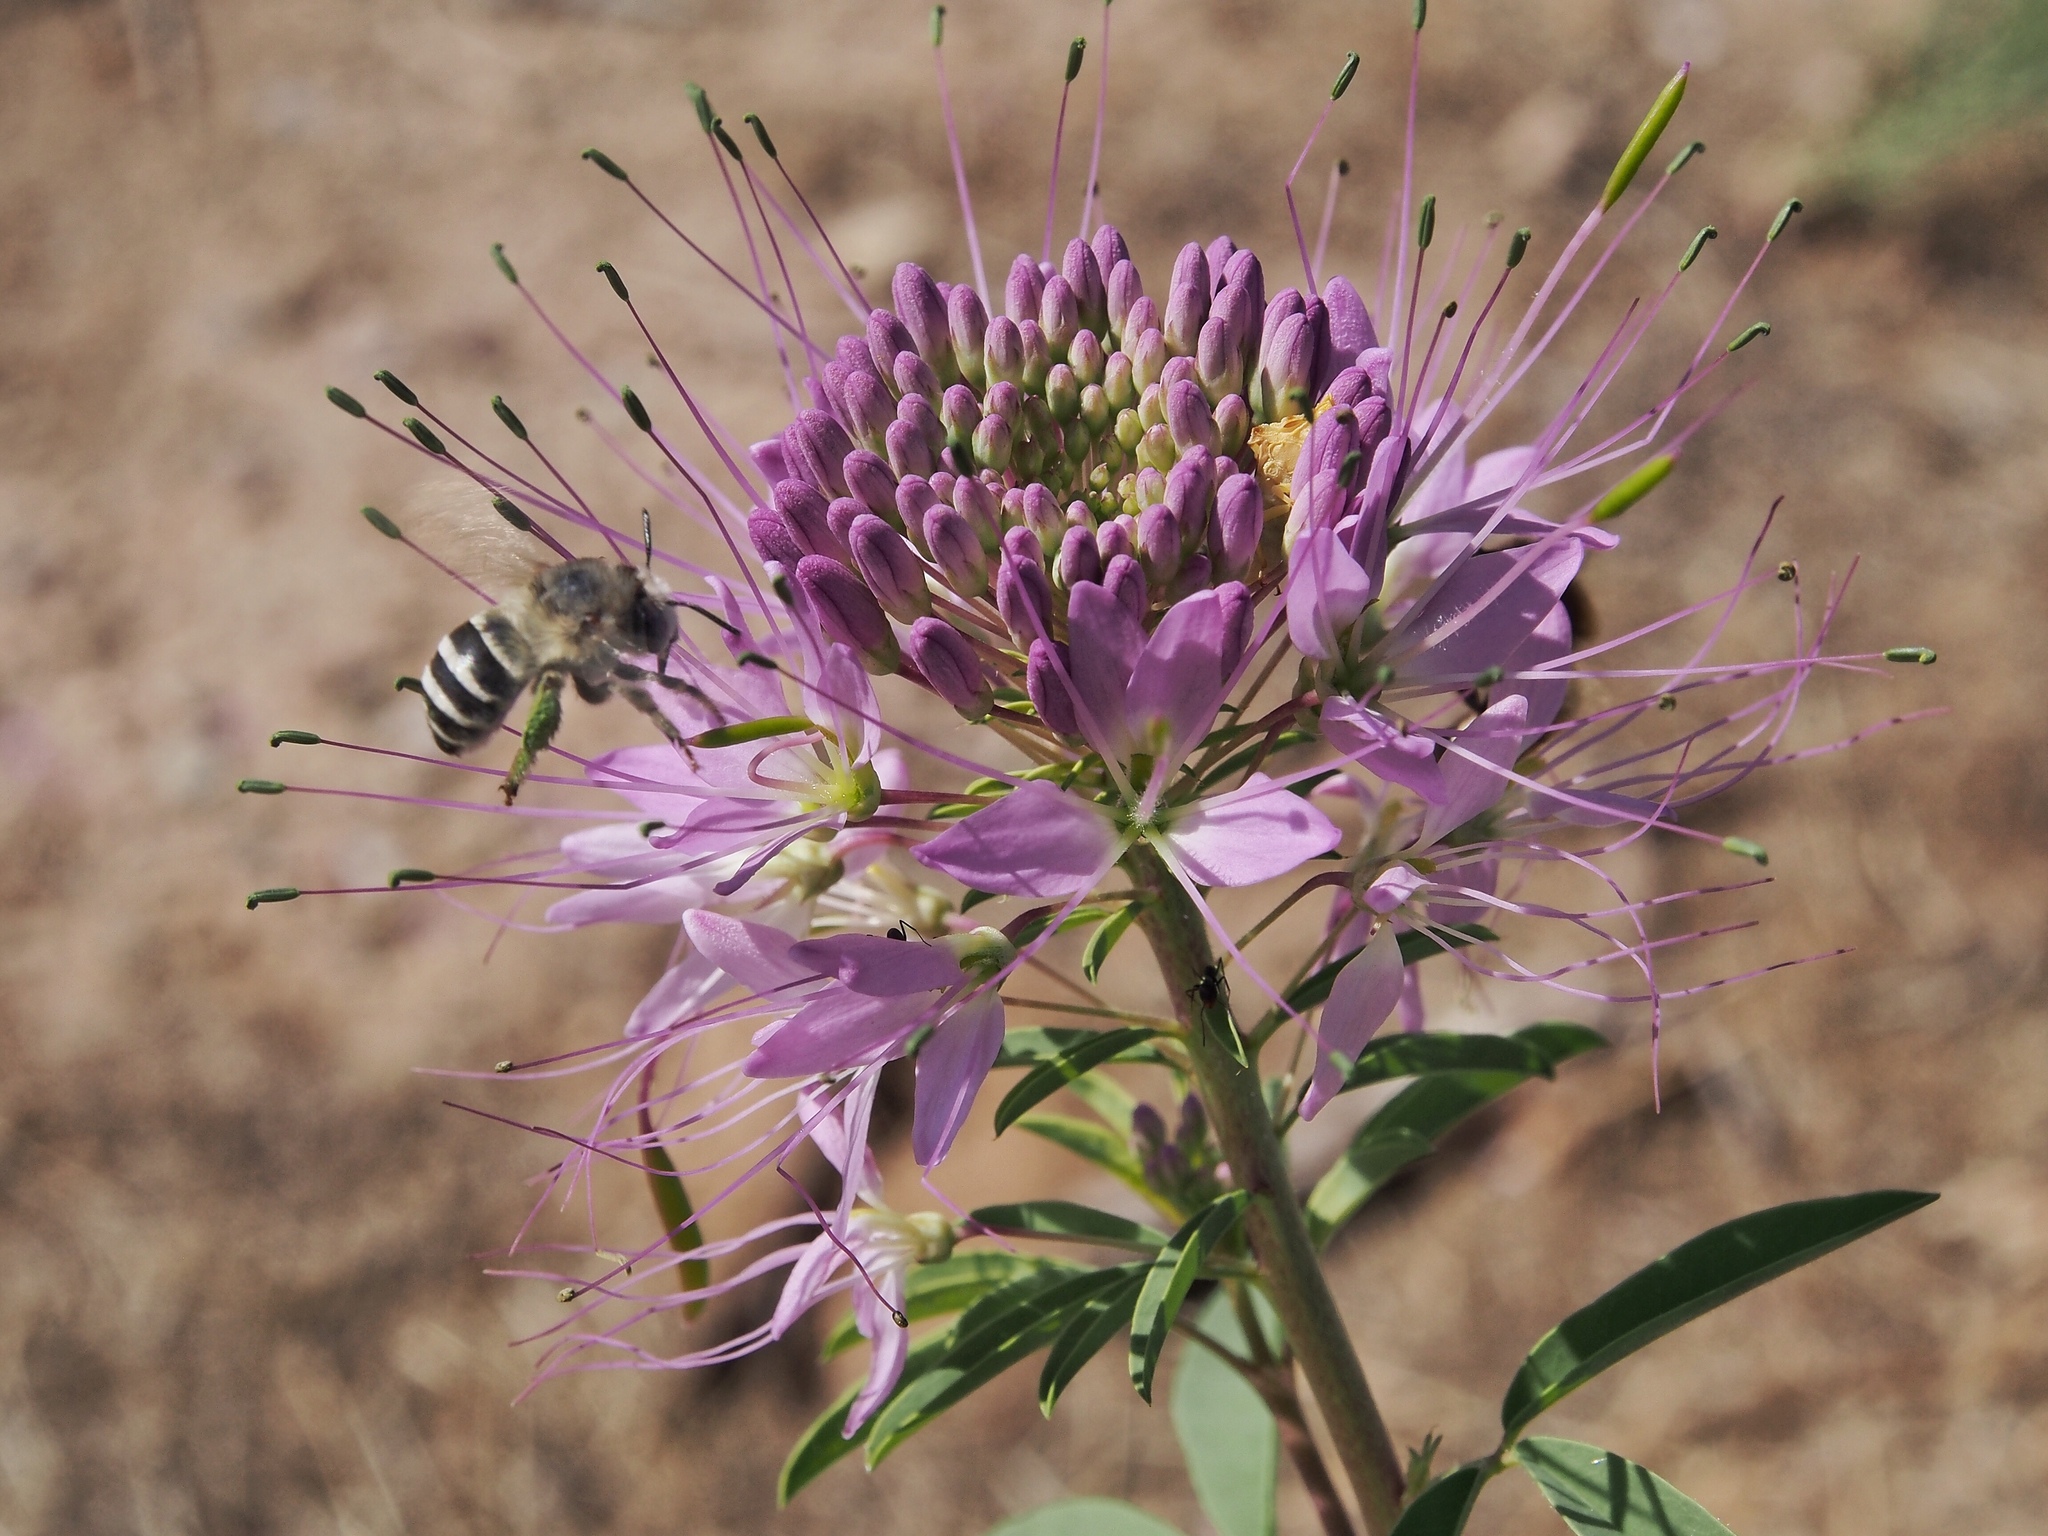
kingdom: Animalia
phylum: Arthropoda
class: Insecta
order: Hymenoptera
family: Apidae
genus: Anthophora
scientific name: Anthophora urbana
